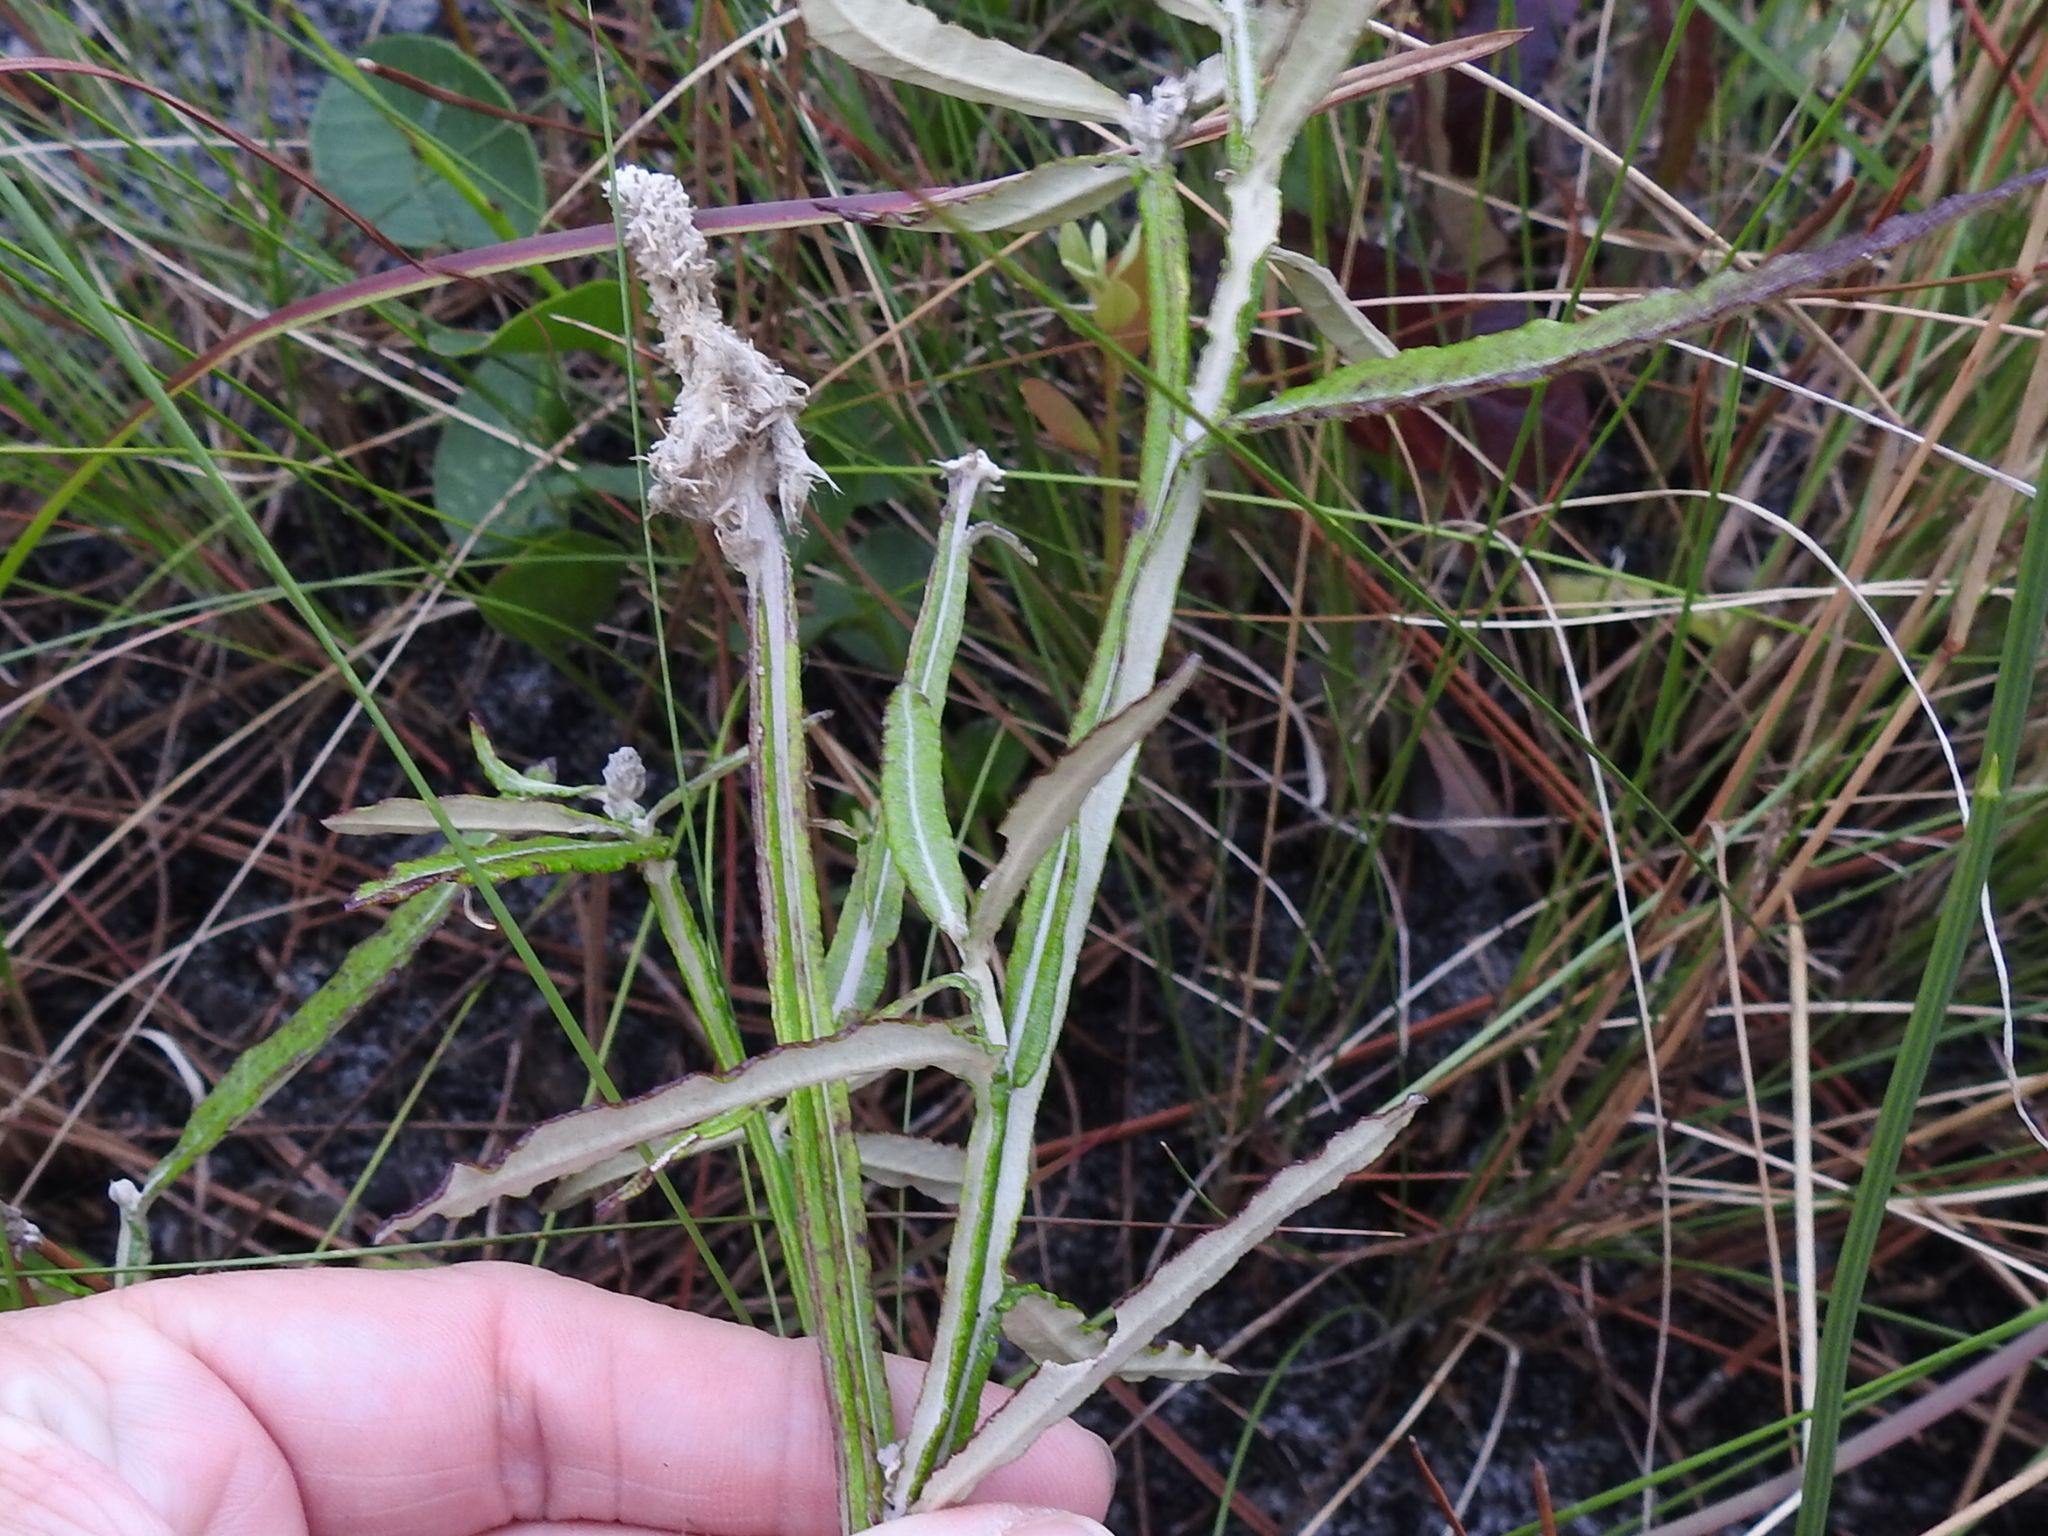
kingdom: Plantae
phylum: Tracheophyta
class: Magnoliopsida
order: Asterales
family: Asteraceae
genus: Pterocaulon
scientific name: Pterocaulon pycnostachyum
